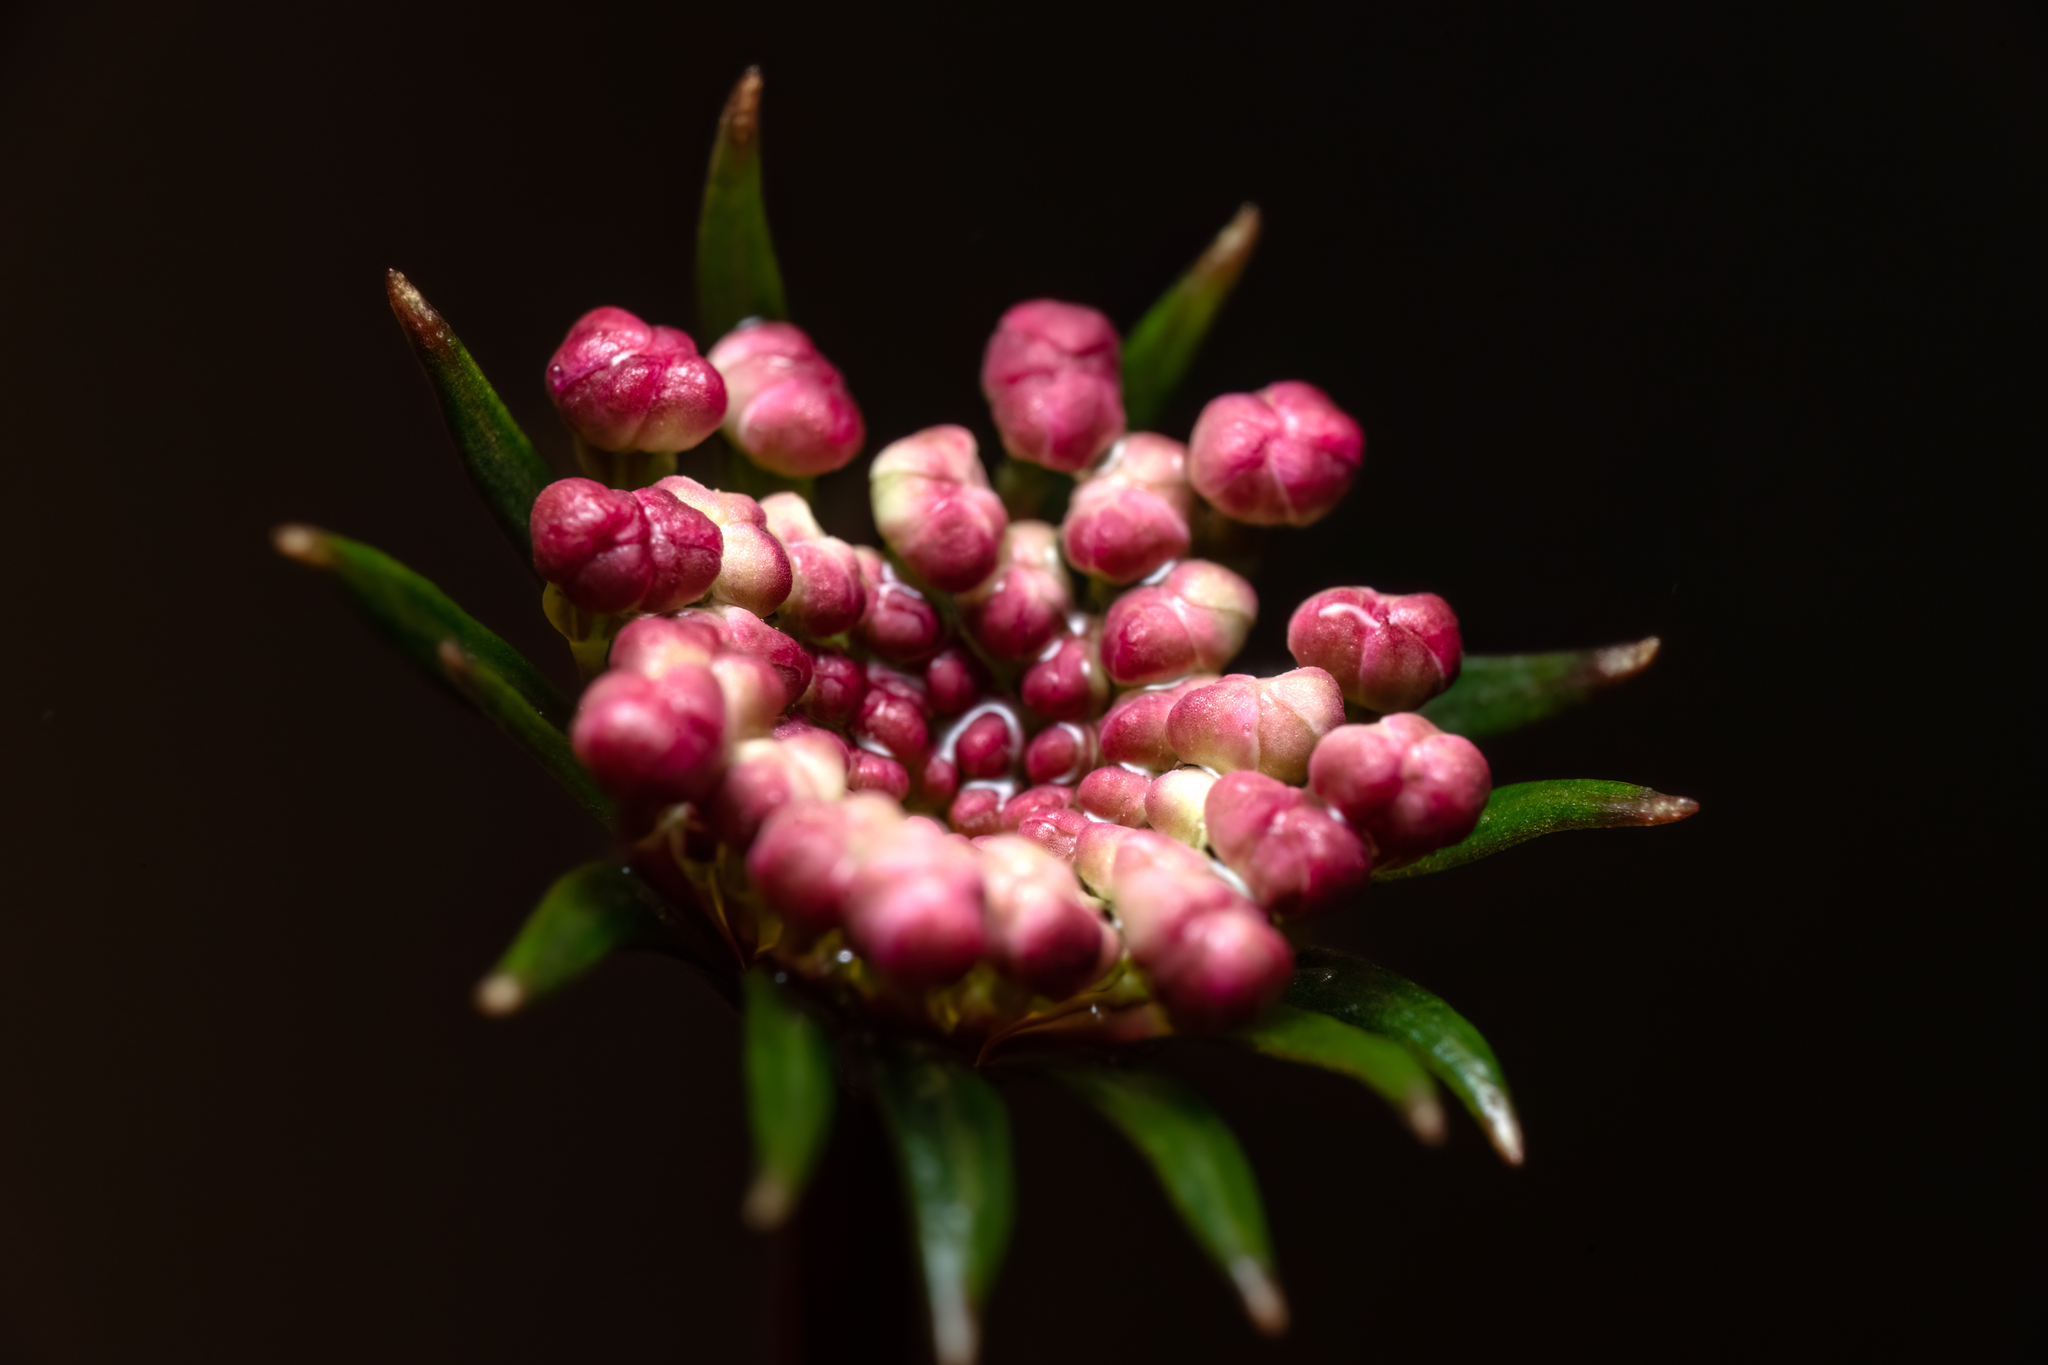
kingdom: Plantae
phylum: Tracheophyta
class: Magnoliopsida
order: Apiales
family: Araliaceae
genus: Trachymene
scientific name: Trachymene saniculifolia
